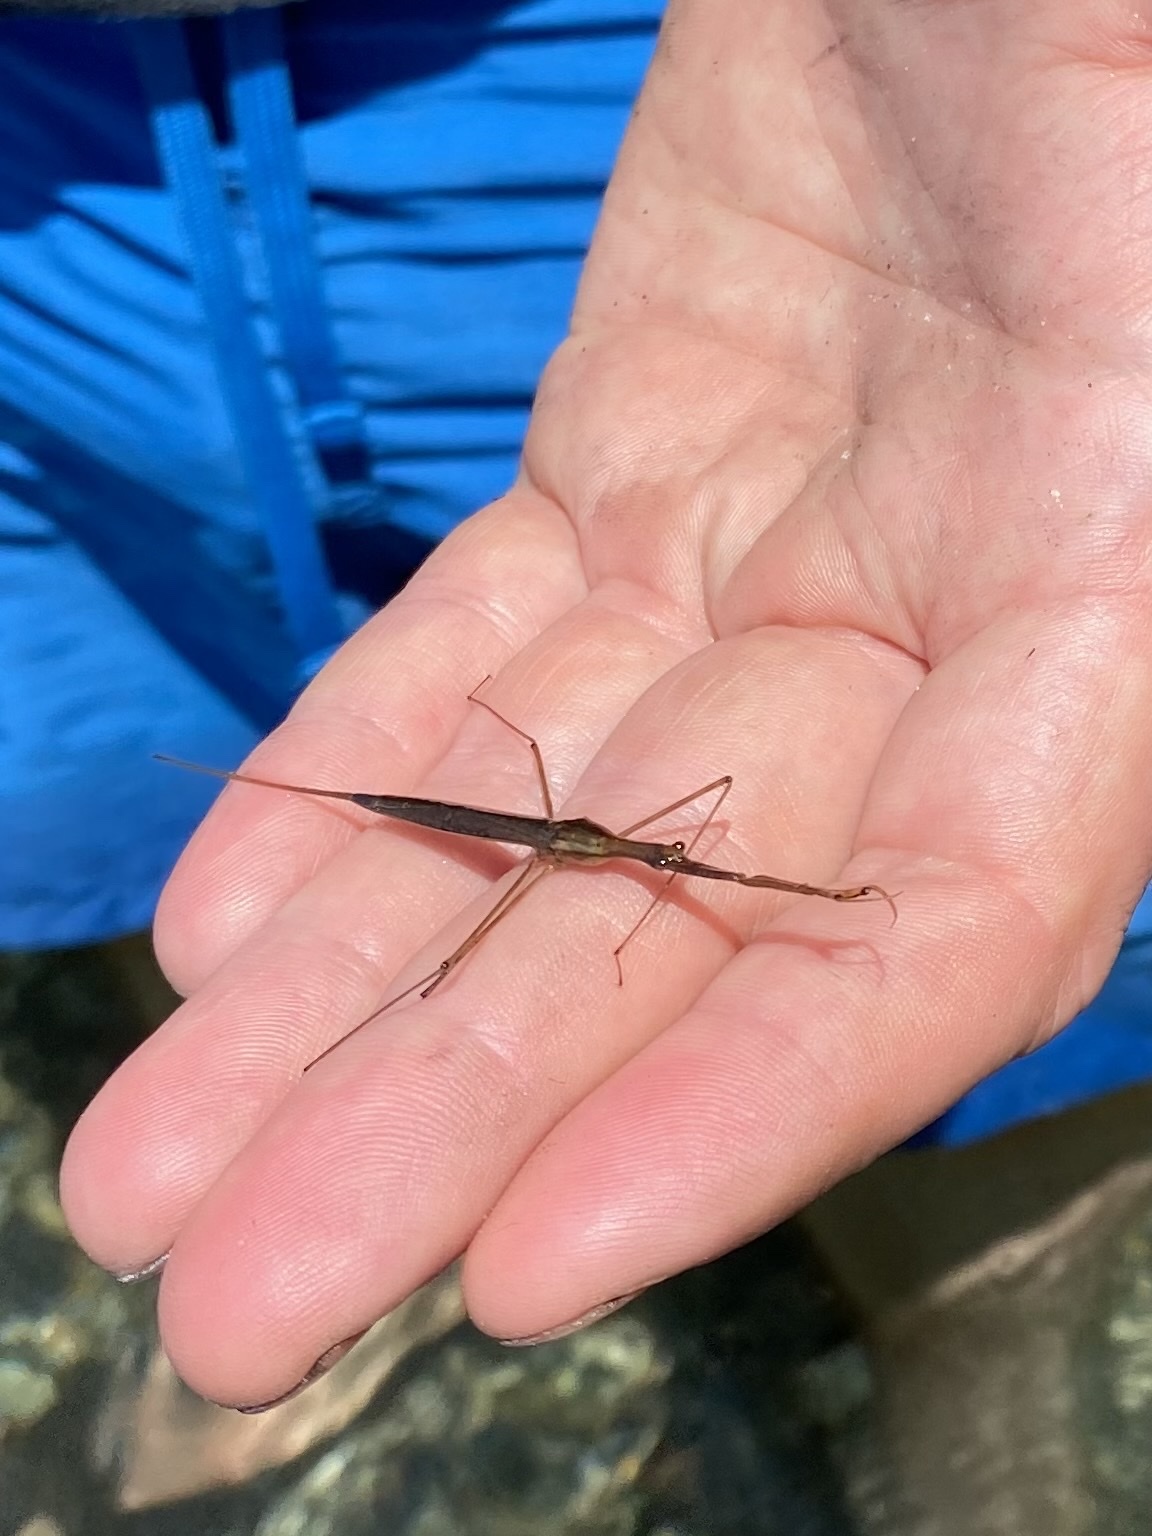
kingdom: Animalia
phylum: Arthropoda
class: Insecta
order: Hemiptera
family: Nepidae
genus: Ranatra
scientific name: Ranatra fusca
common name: Brown waterscorpion
